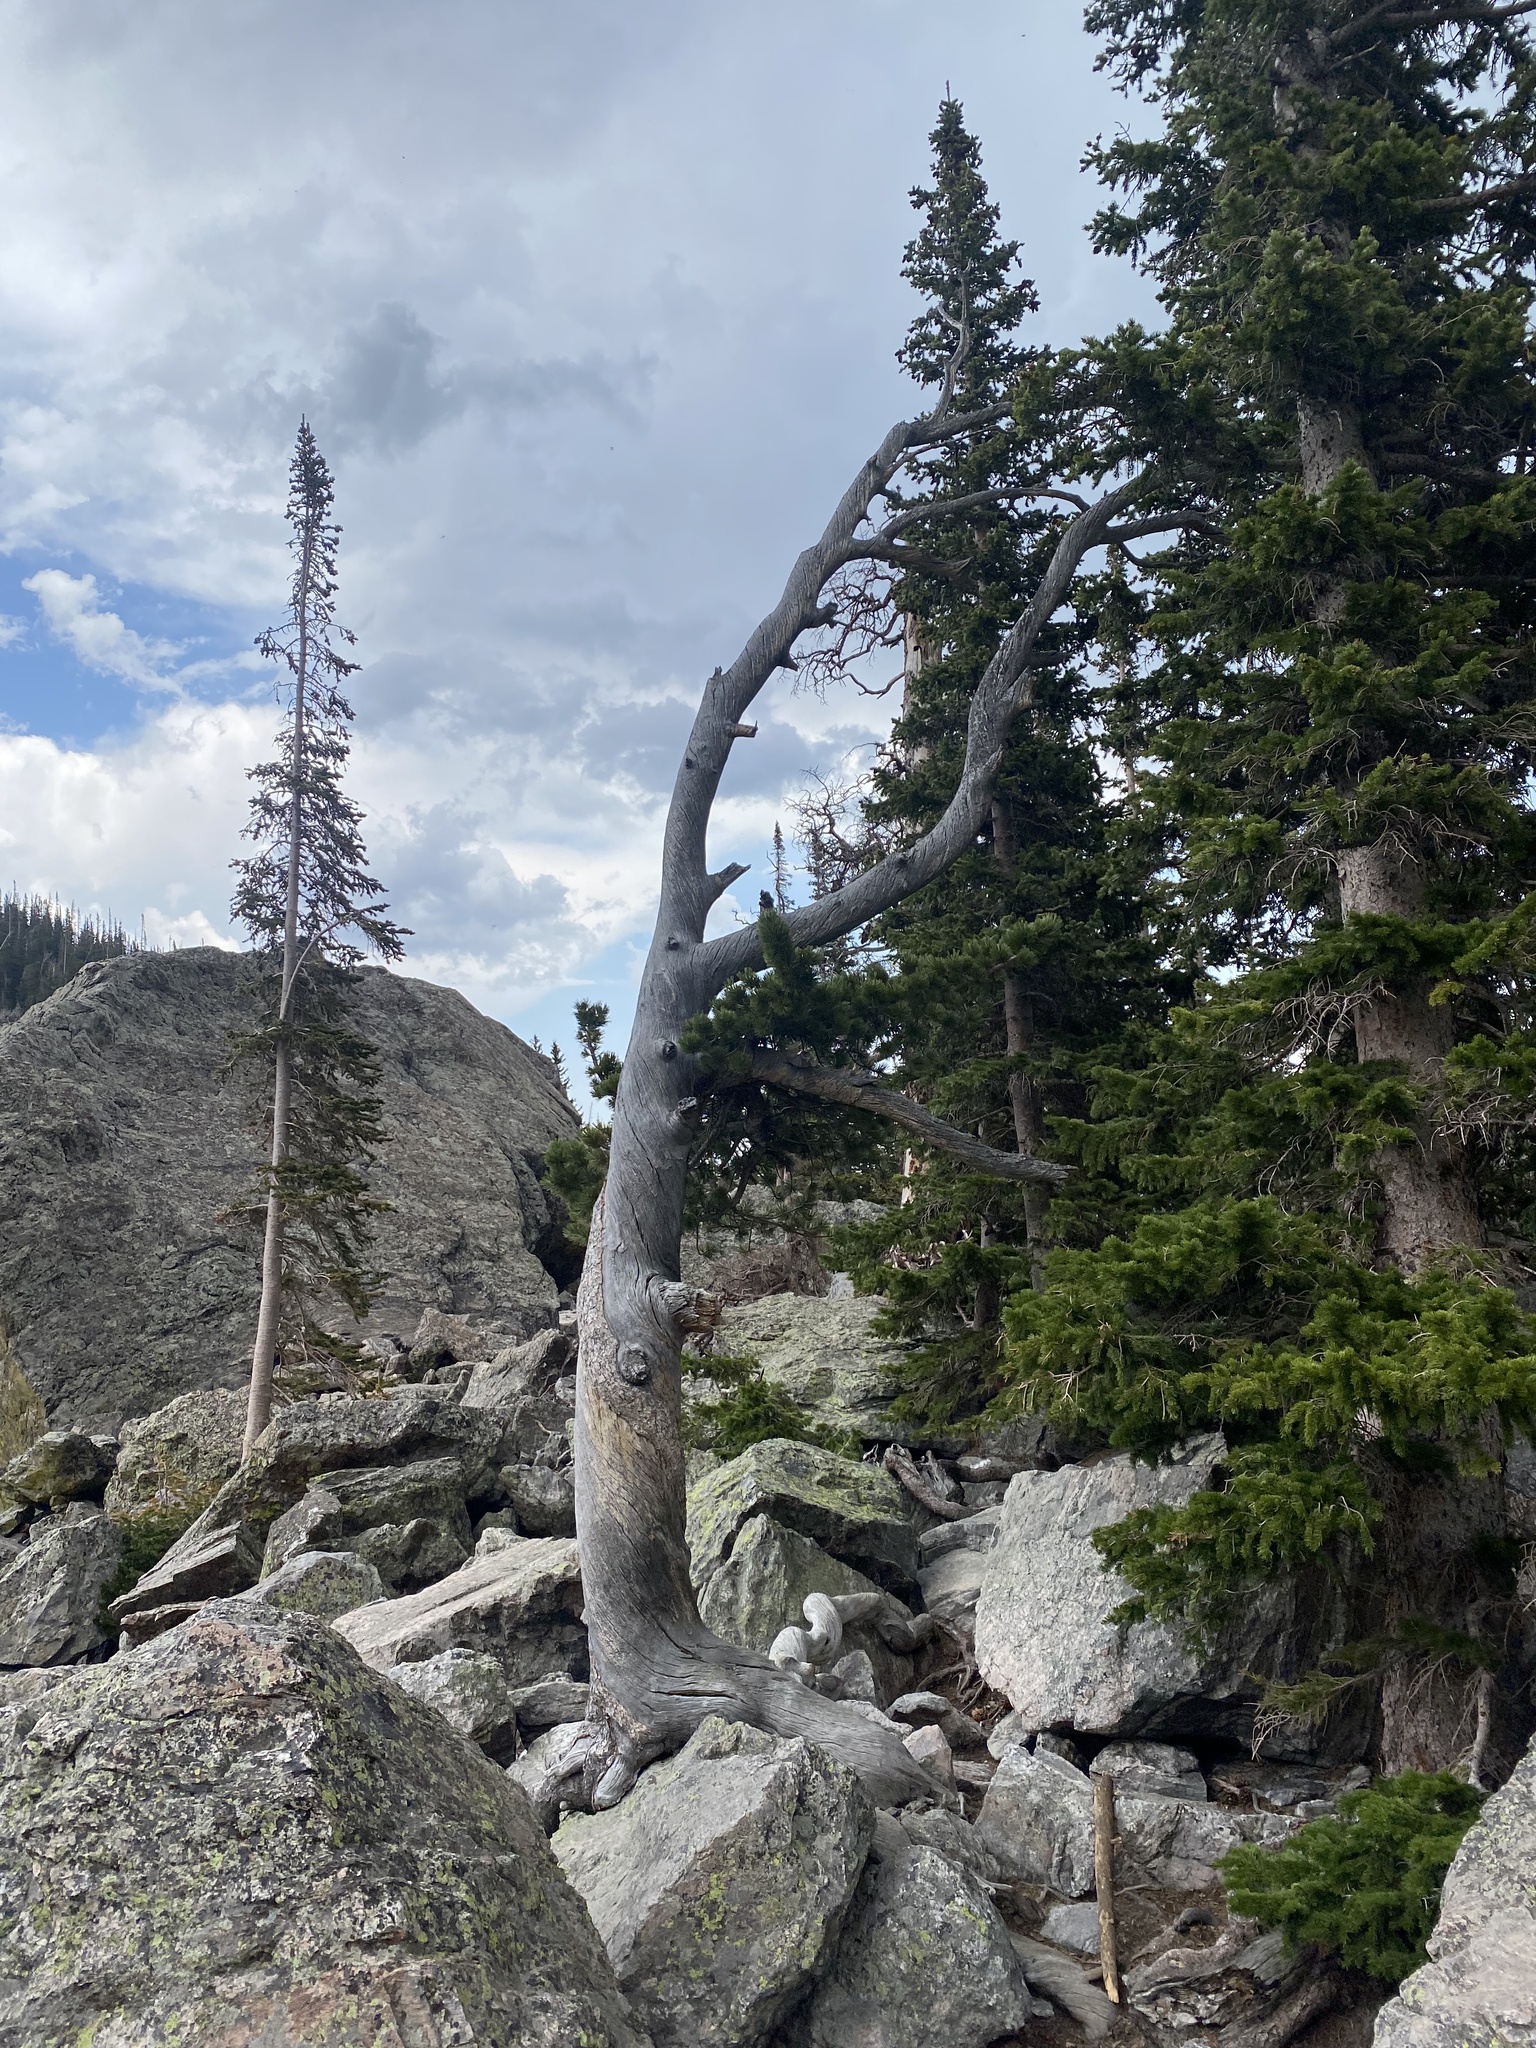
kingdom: Plantae
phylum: Tracheophyta
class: Pinopsida
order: Pinales
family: Pinaceae
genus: Pinus
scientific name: Pinus aristata
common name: Colorado bristlecone pine
